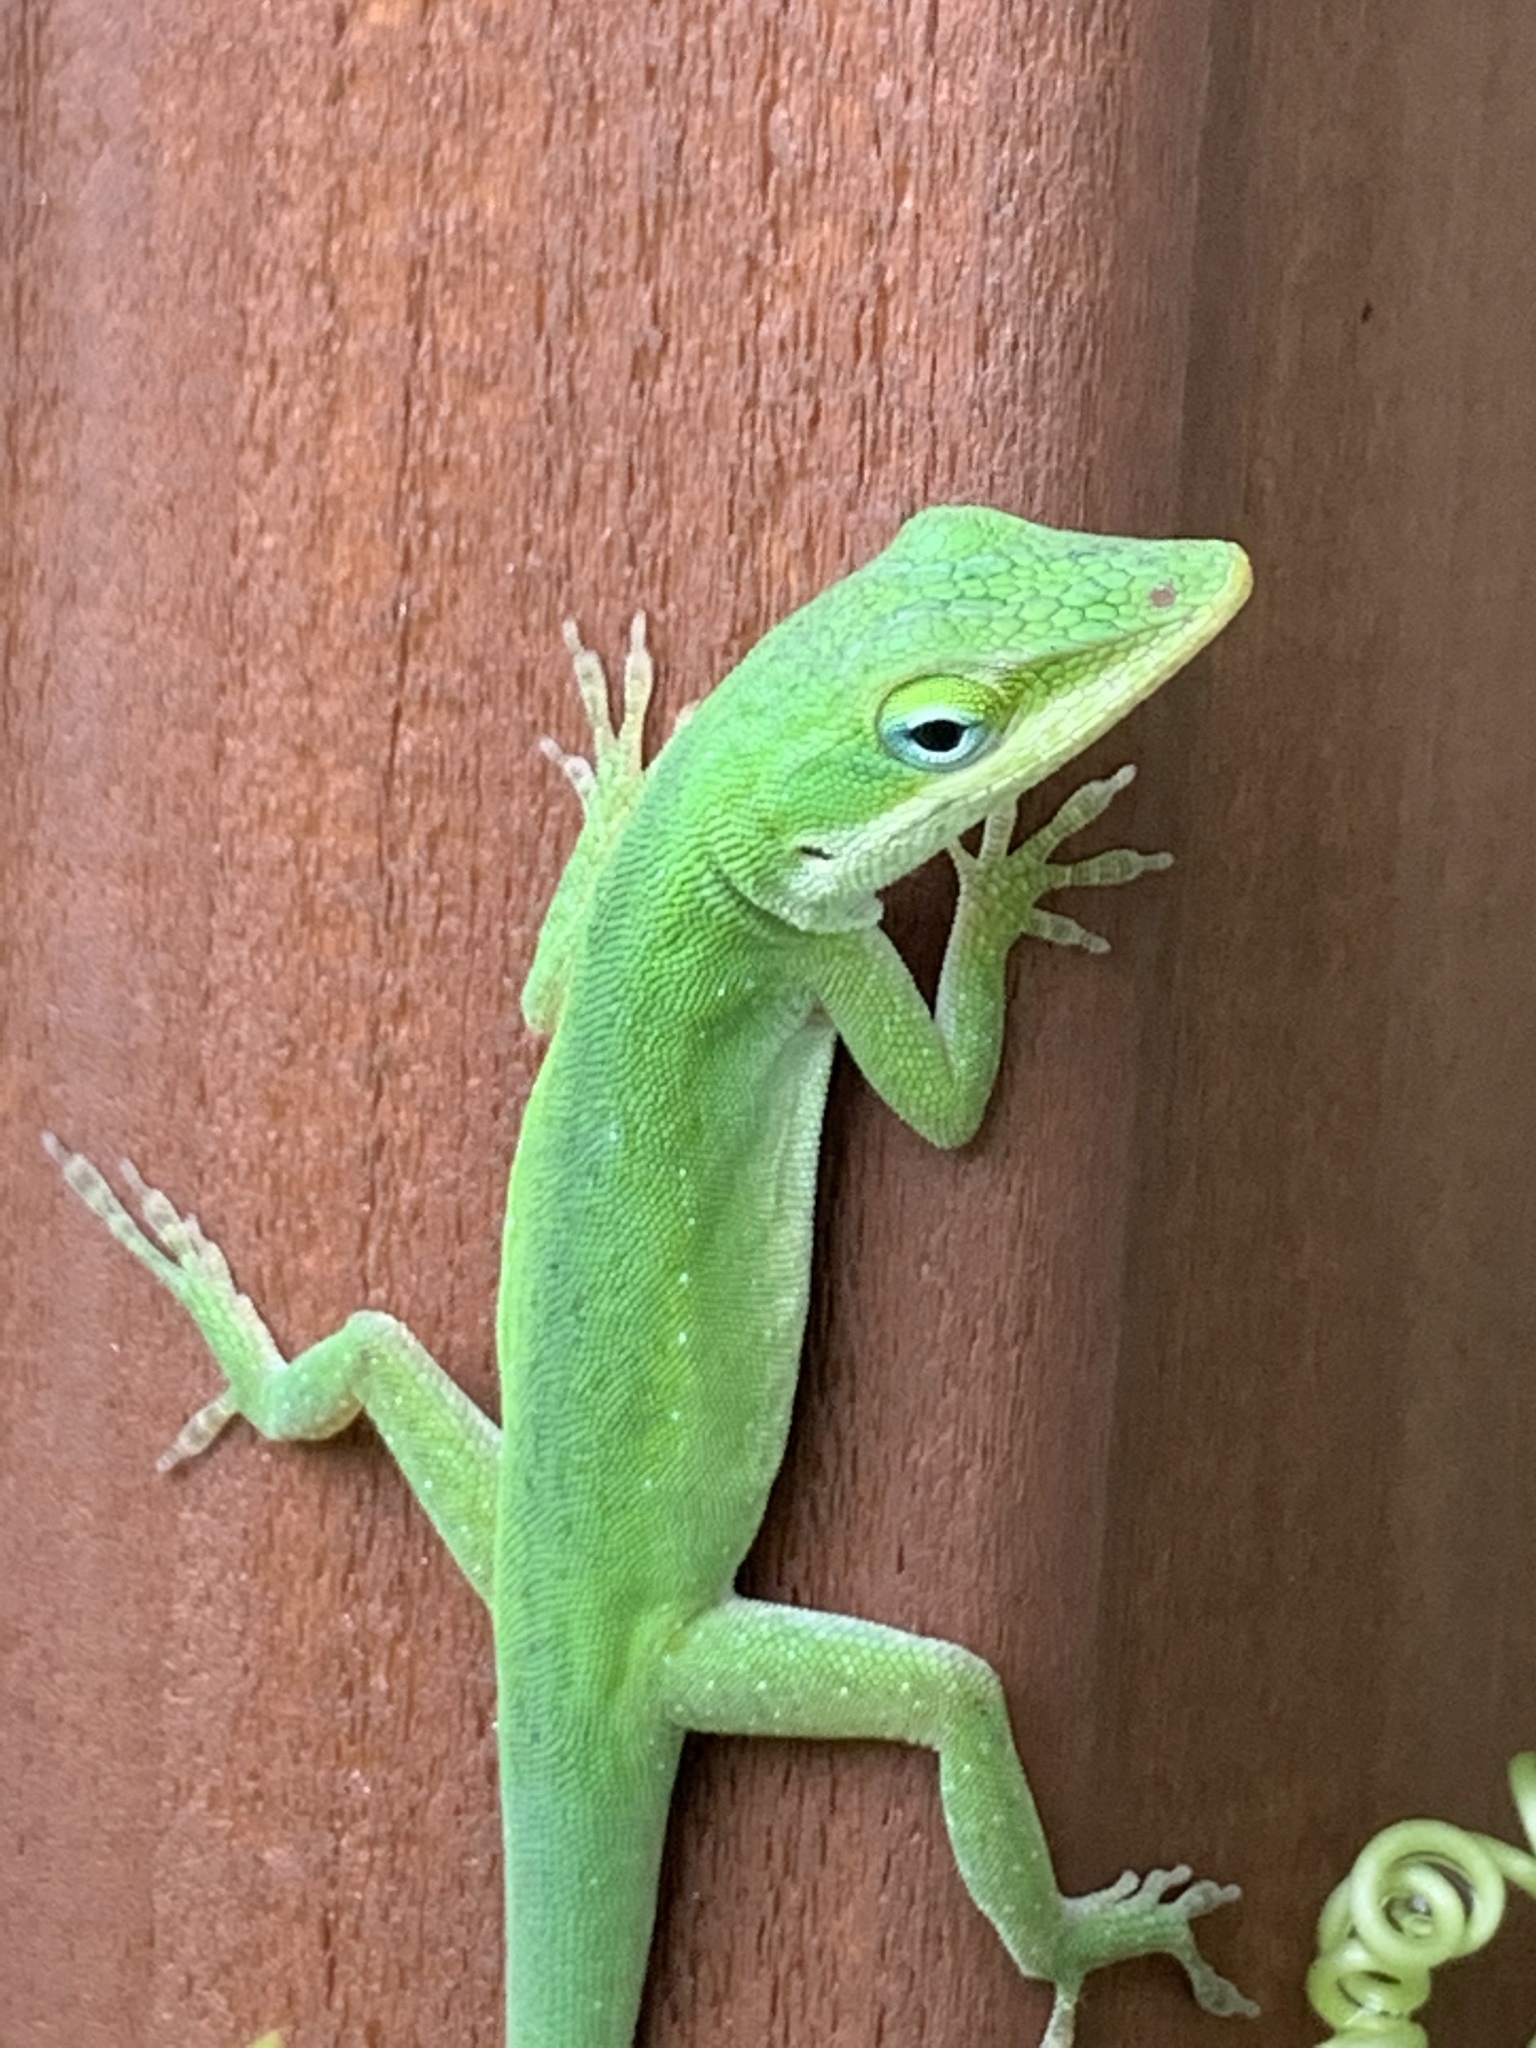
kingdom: Animalia
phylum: Chordata
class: Squamata
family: Dactyloidae
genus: Anolis
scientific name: Anolis carolinensis
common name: Green anole
